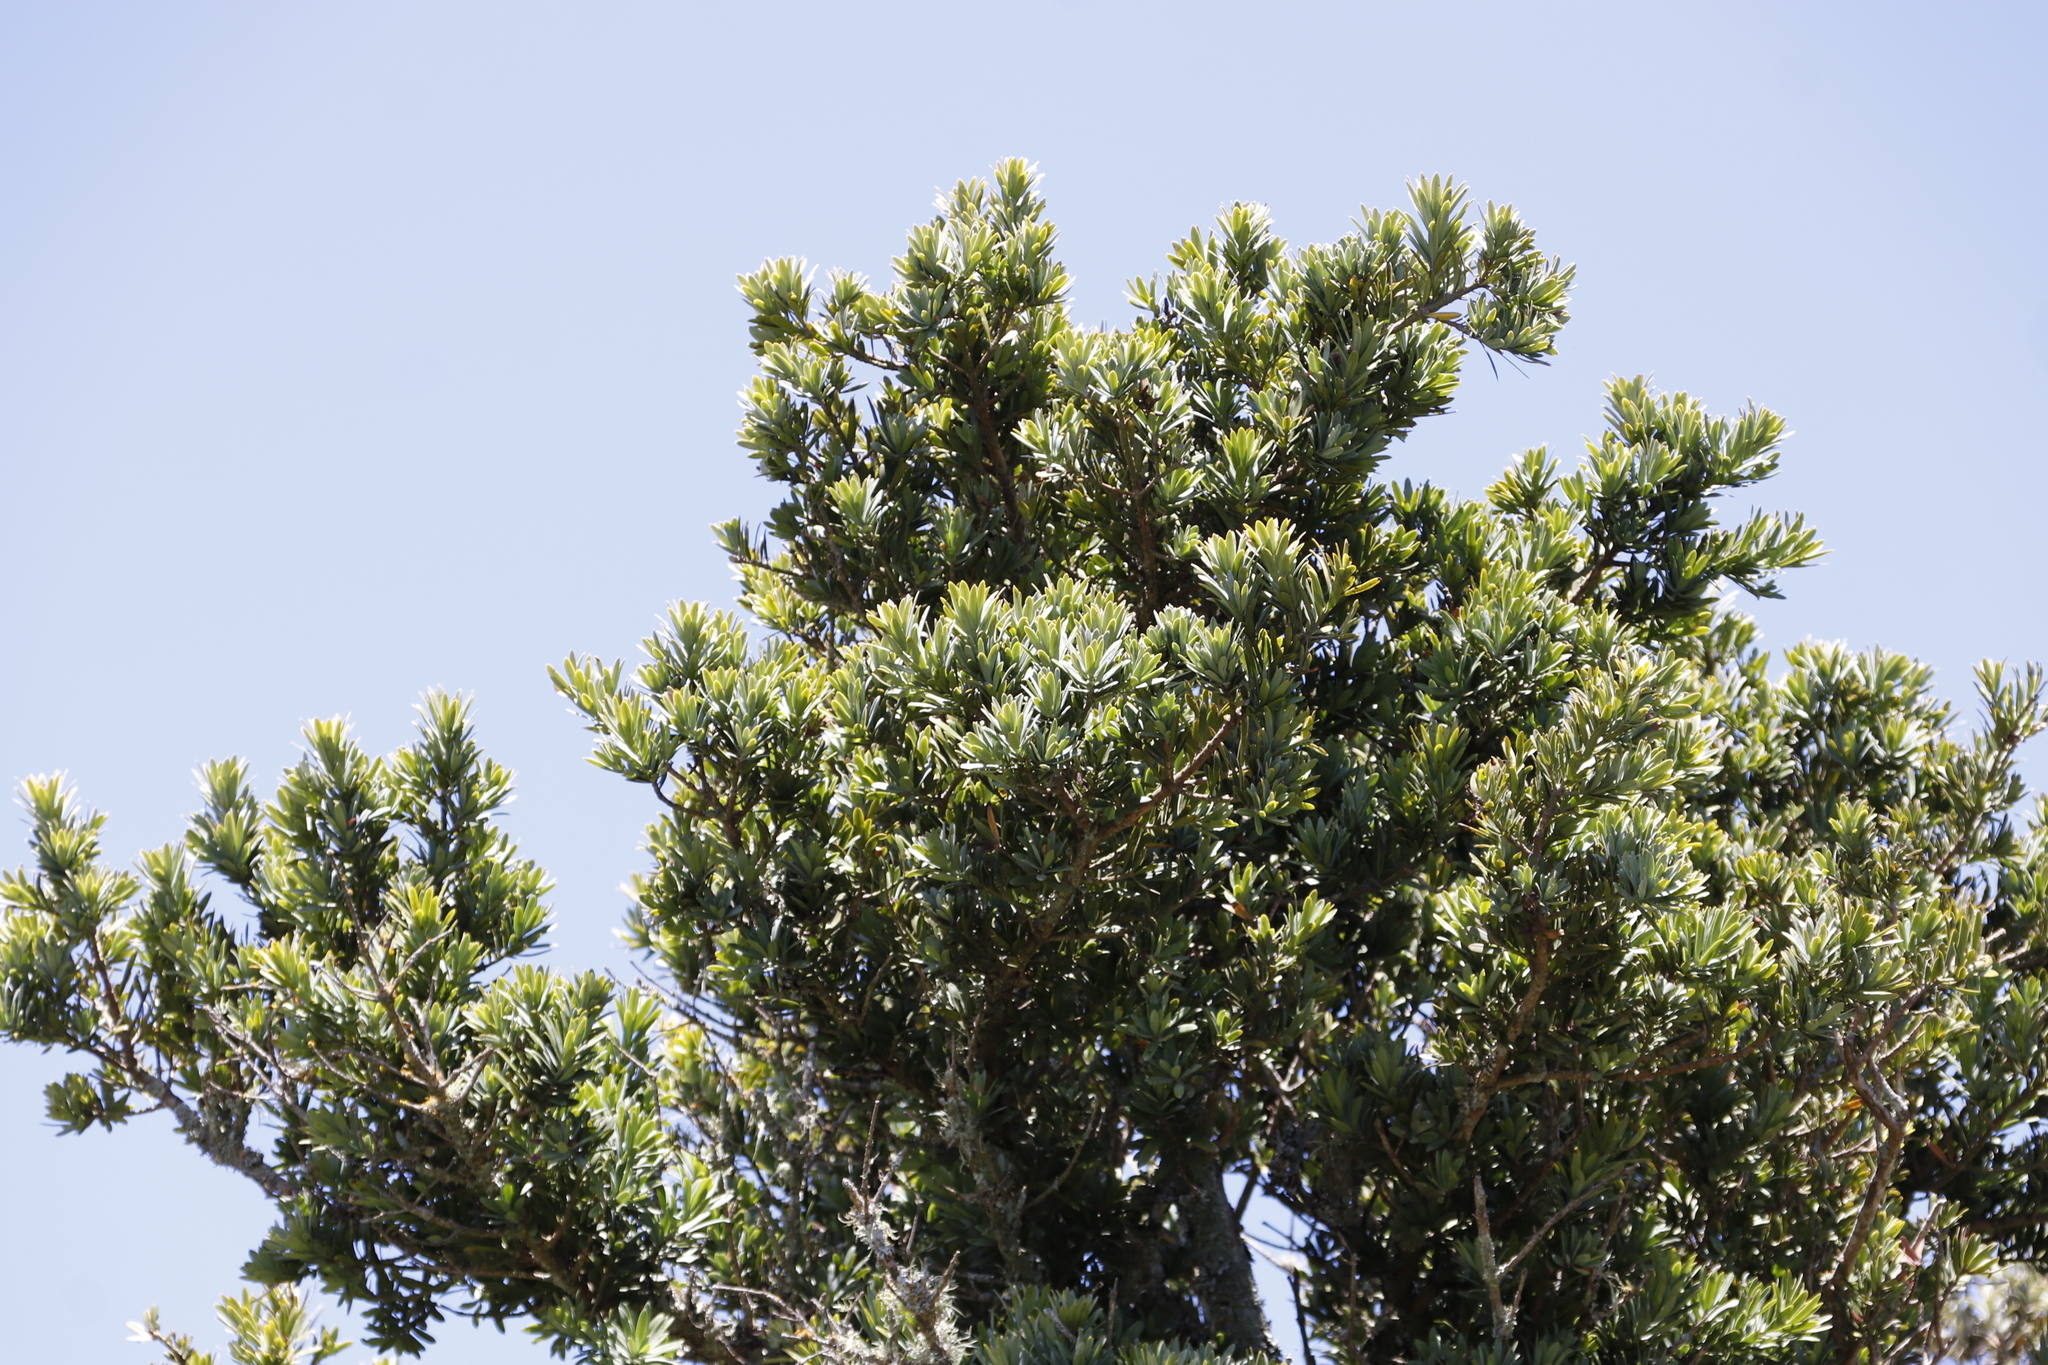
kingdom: Plantae
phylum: Tracheophyta
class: Pinopsida
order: Pinales
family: Podocarpaceae
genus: Podocarpus
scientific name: Podocarpus latifolius
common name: True yellowwood
